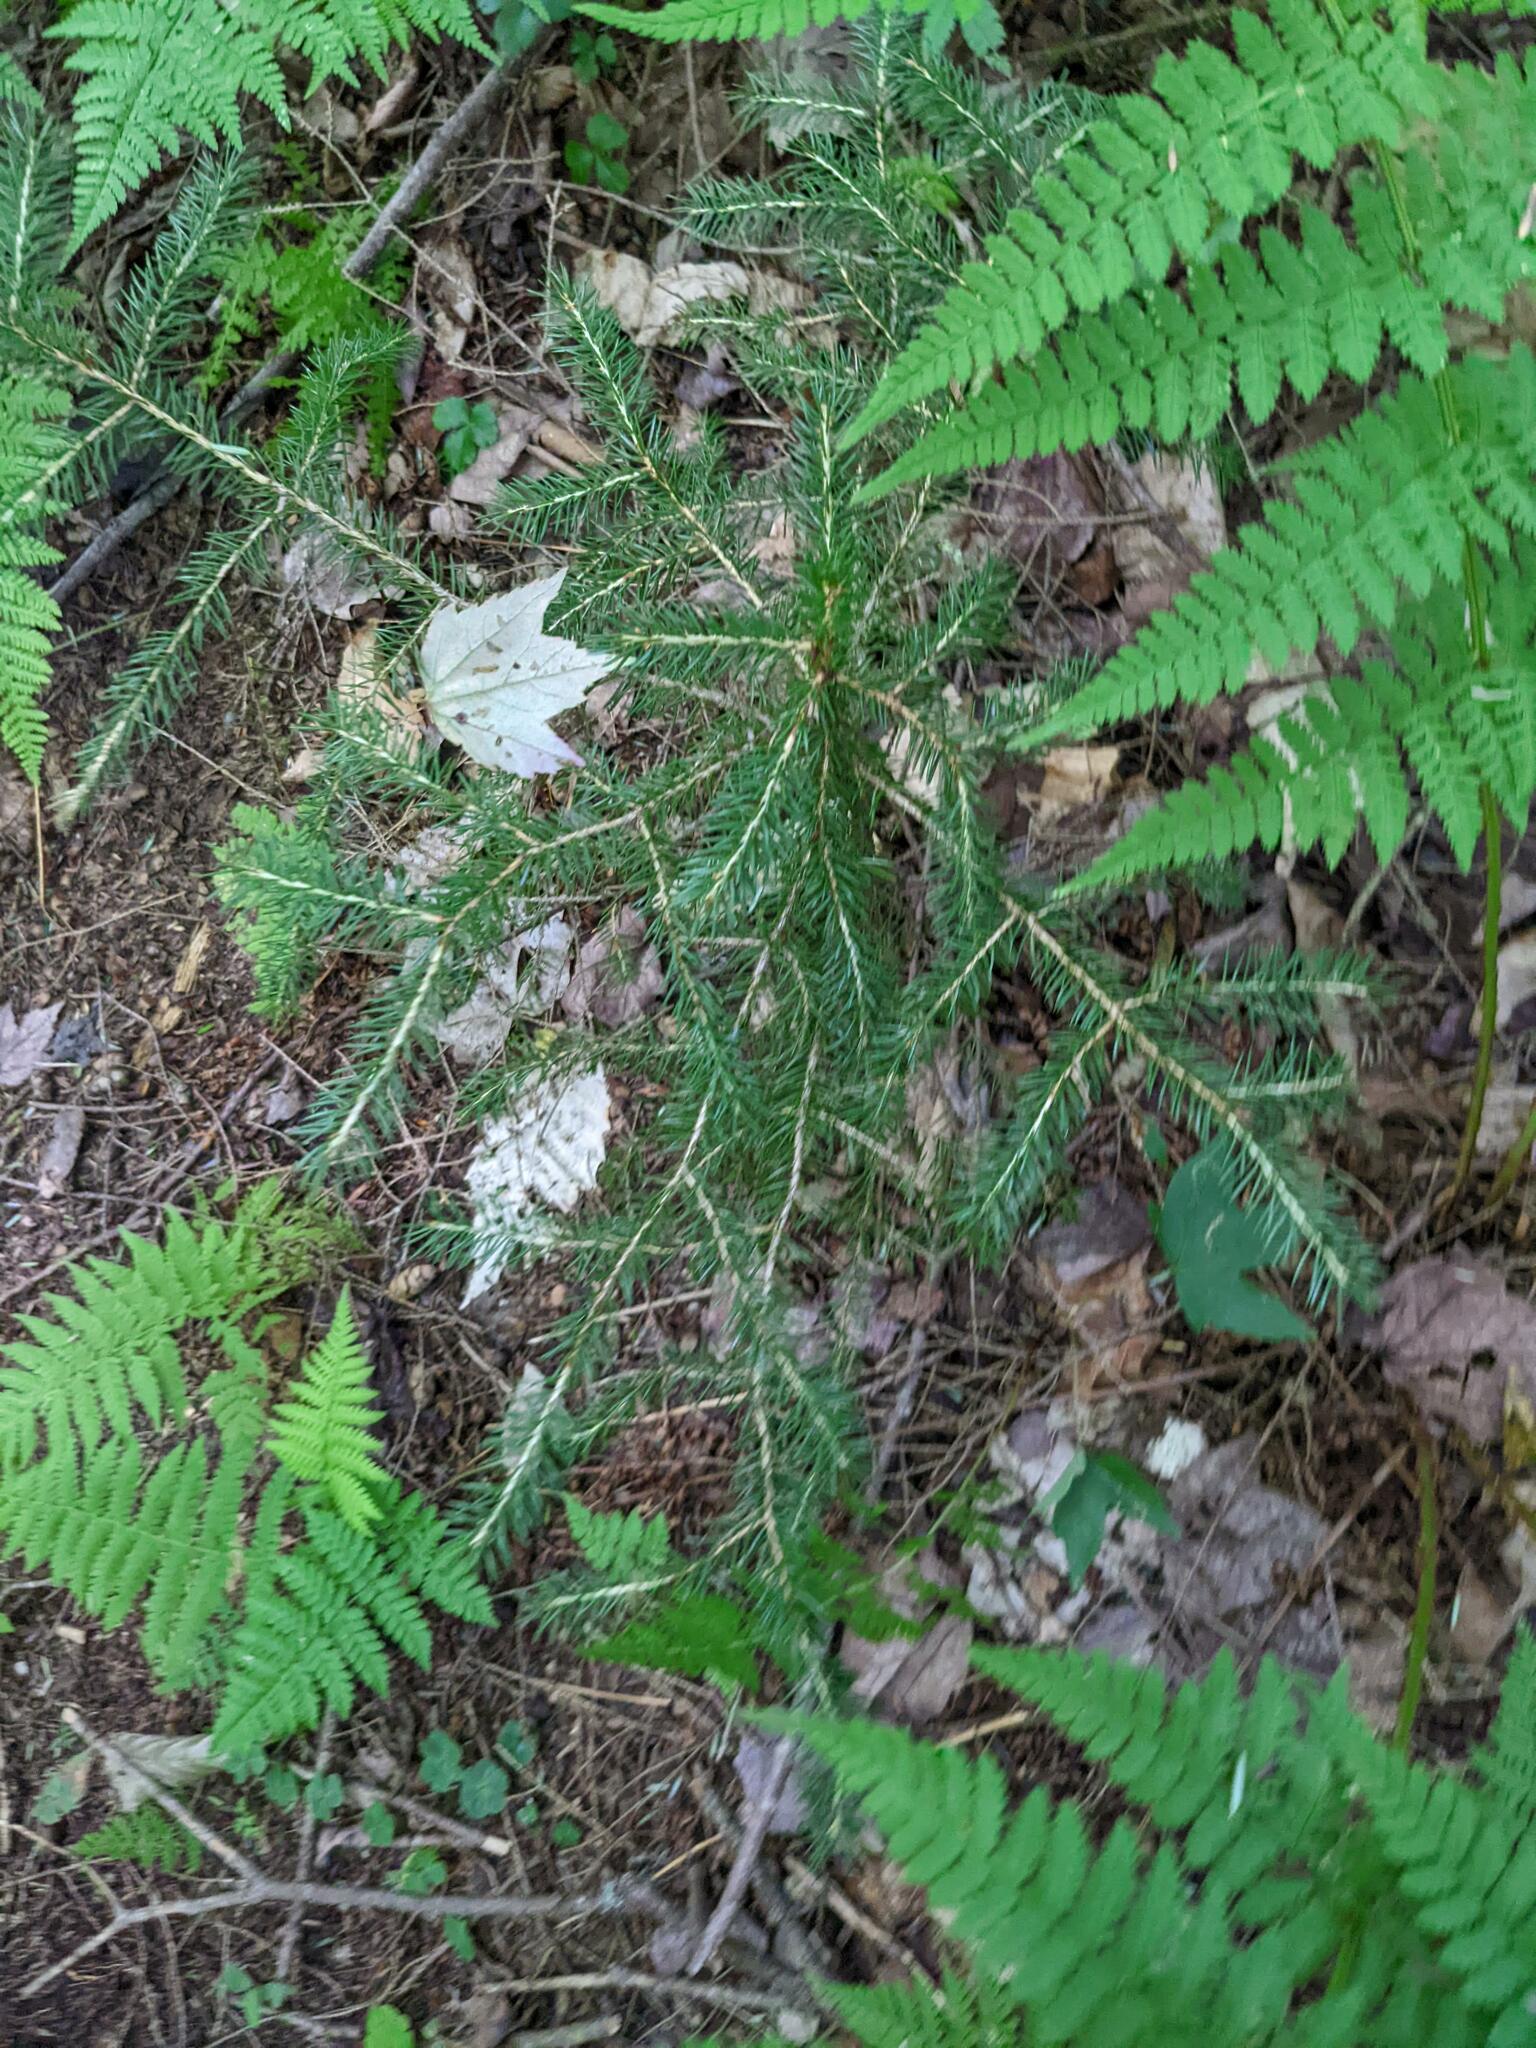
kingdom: Plantae
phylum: Tracheophyta
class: Pinopsida
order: Pinales
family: Pinaceae
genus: Picea
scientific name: Picea rubens
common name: Red spruce
